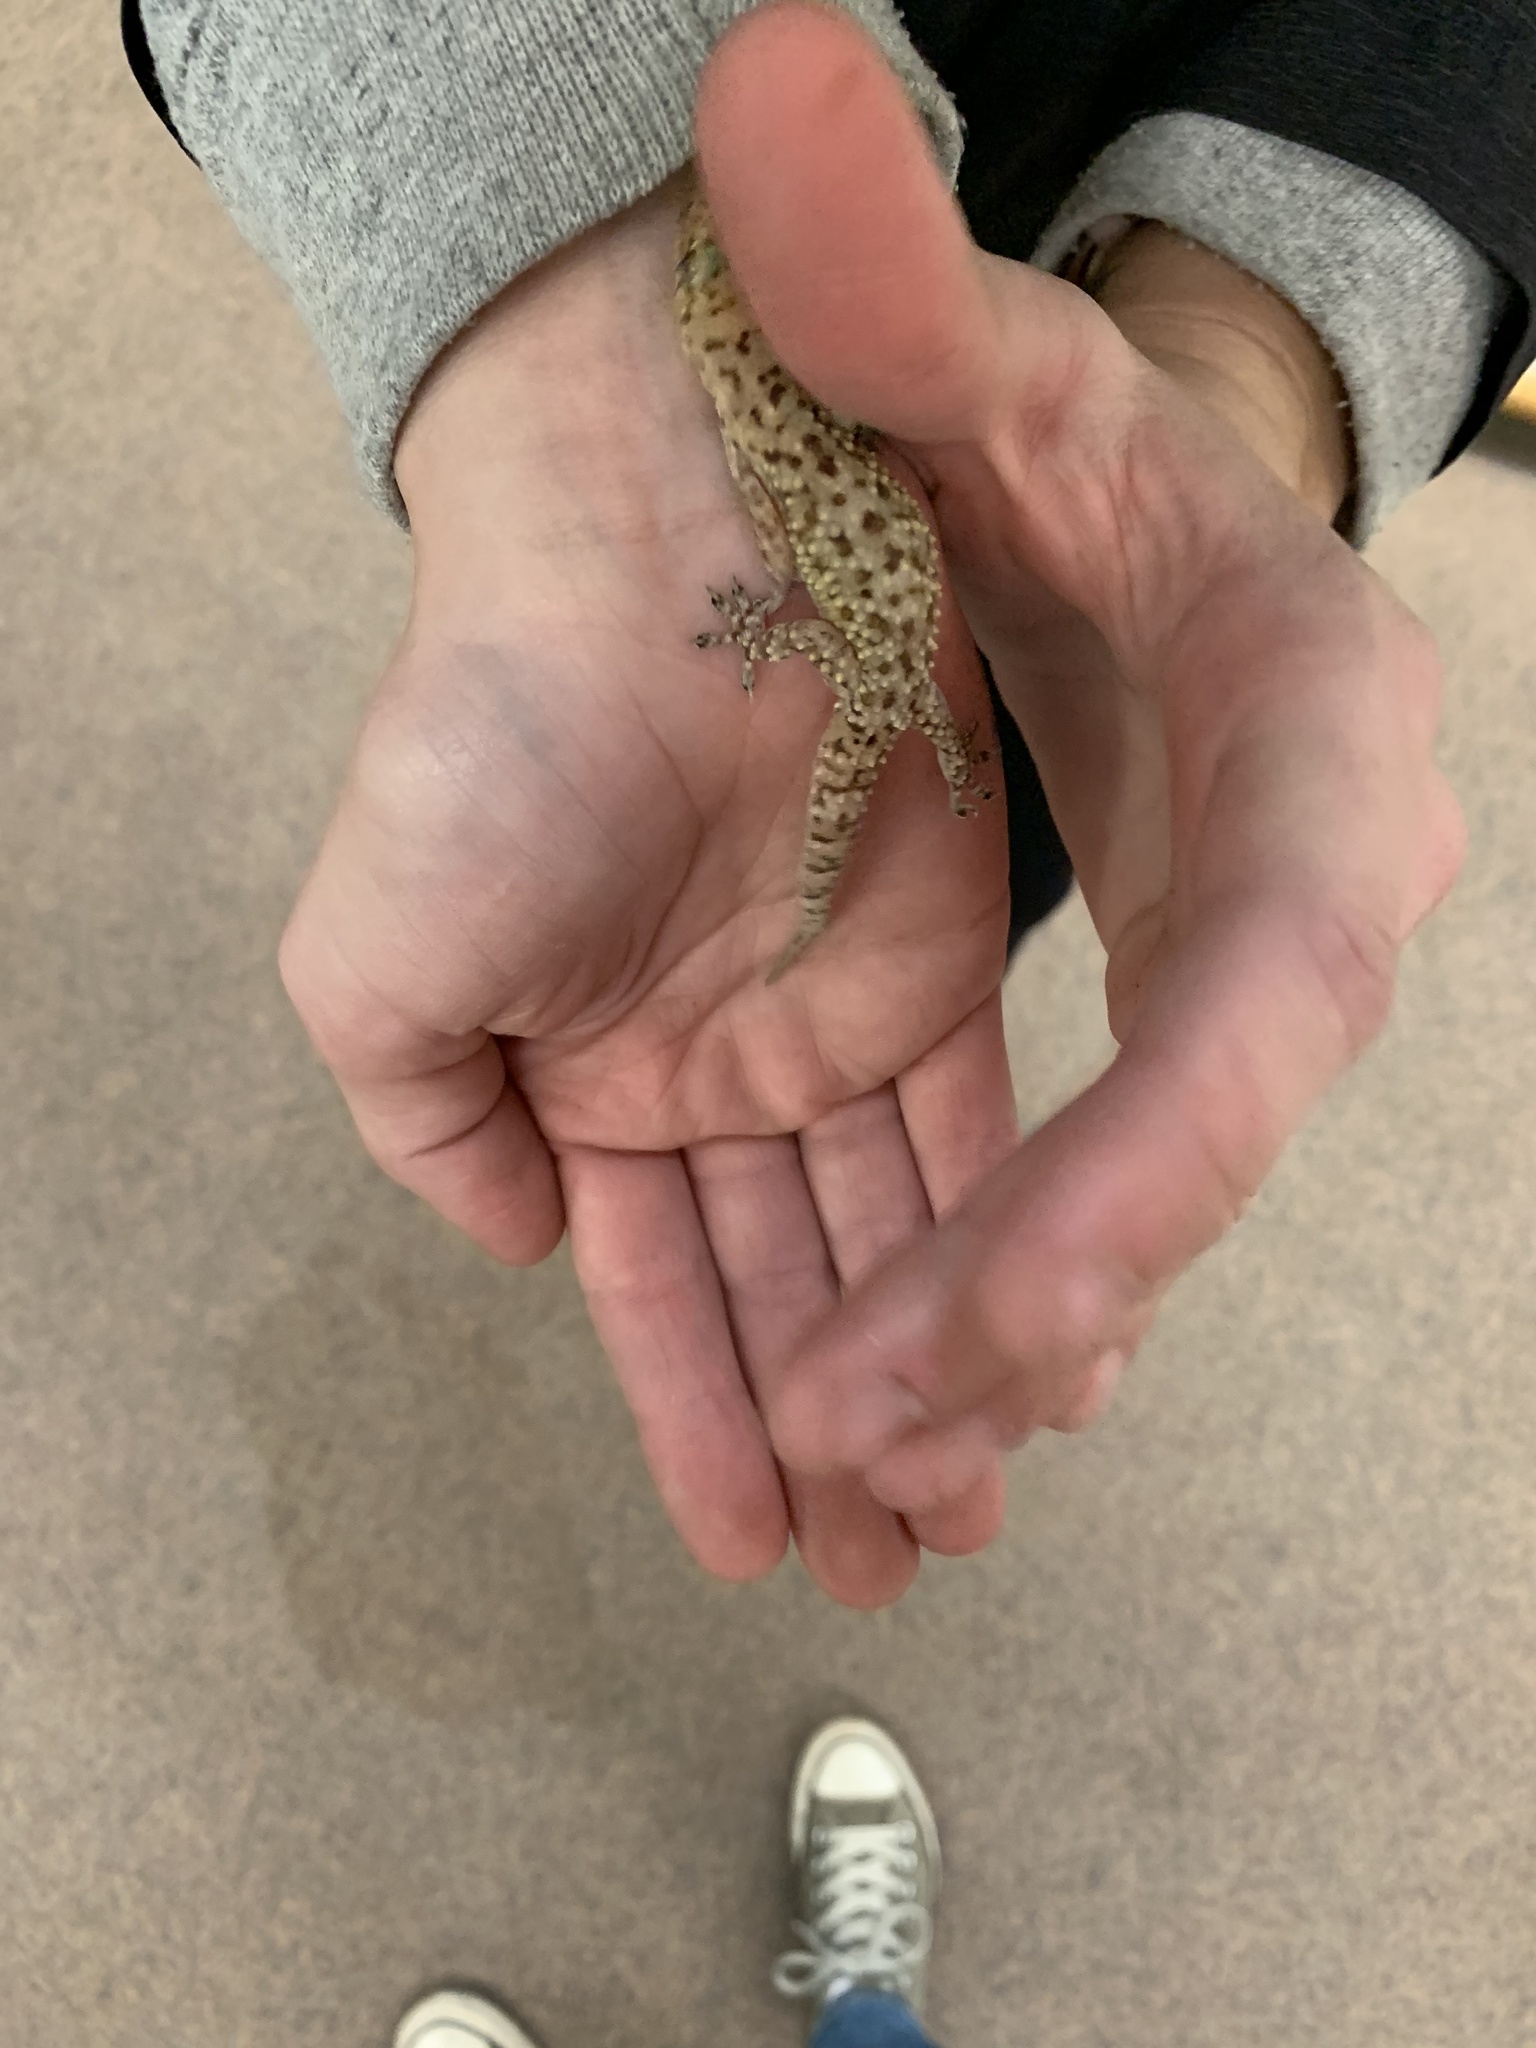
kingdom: Animalia
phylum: Chordata
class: Squamata
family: Gekkonidae
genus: Hemidactylus
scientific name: Hemidactylus turcicus
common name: Turkish gecko
